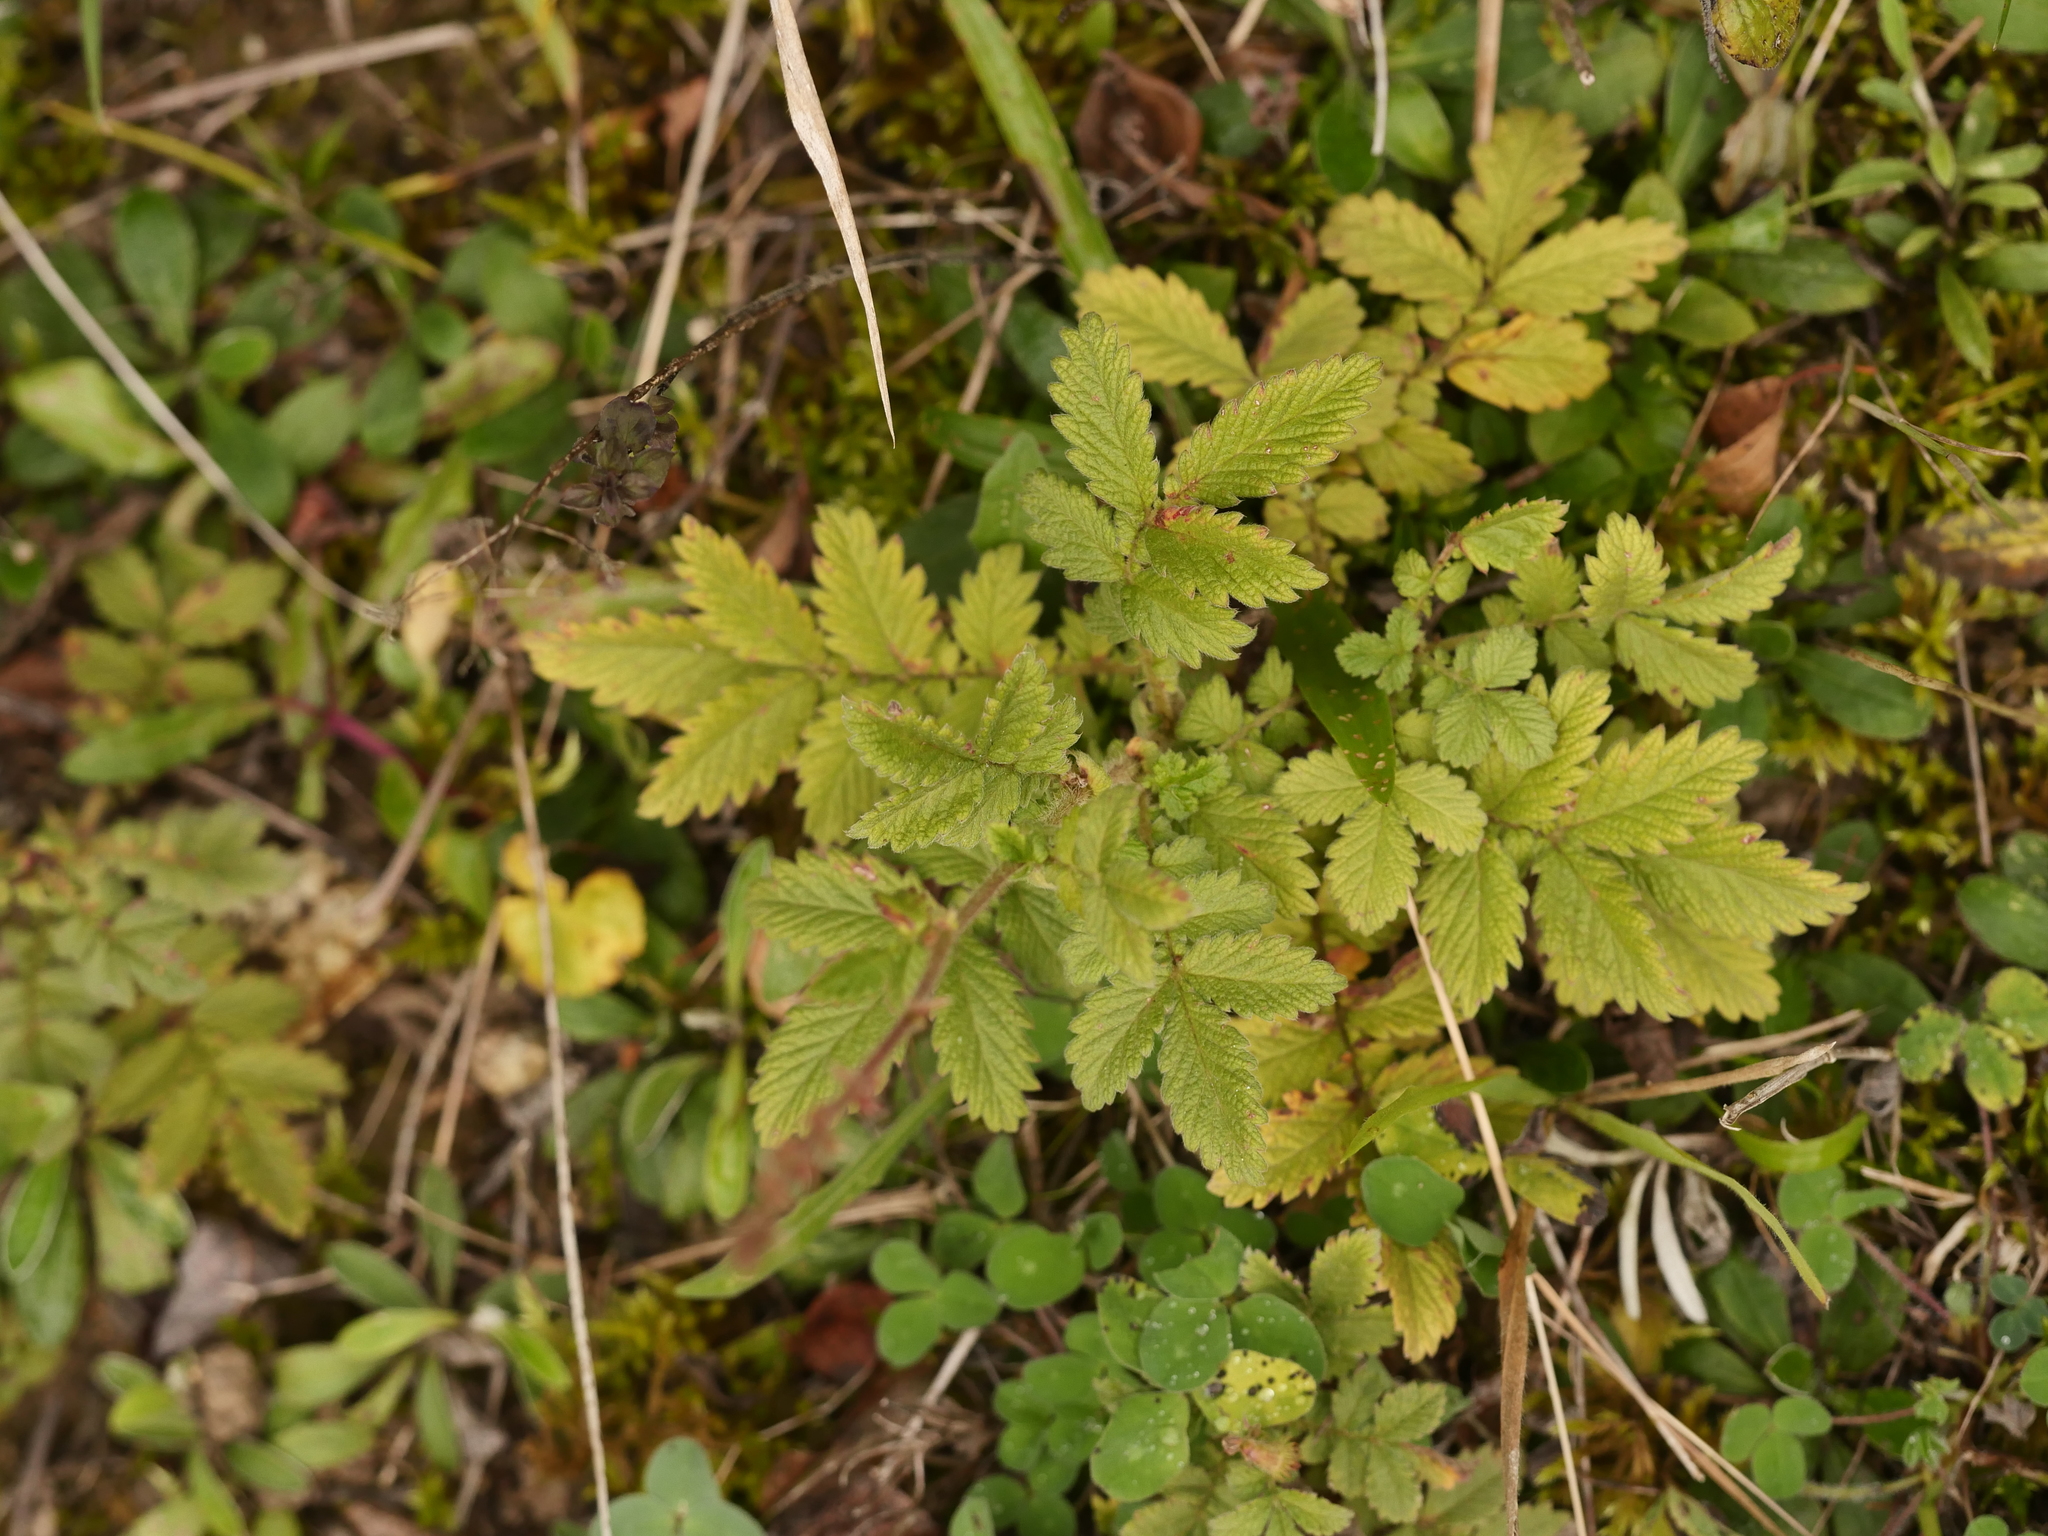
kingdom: Plantae
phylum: Tracheophyta
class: Magnoliopsida
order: Rosales
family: Rosaceae
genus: Agrimonia
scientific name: Agrimonia eupatoria
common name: Agrimony
